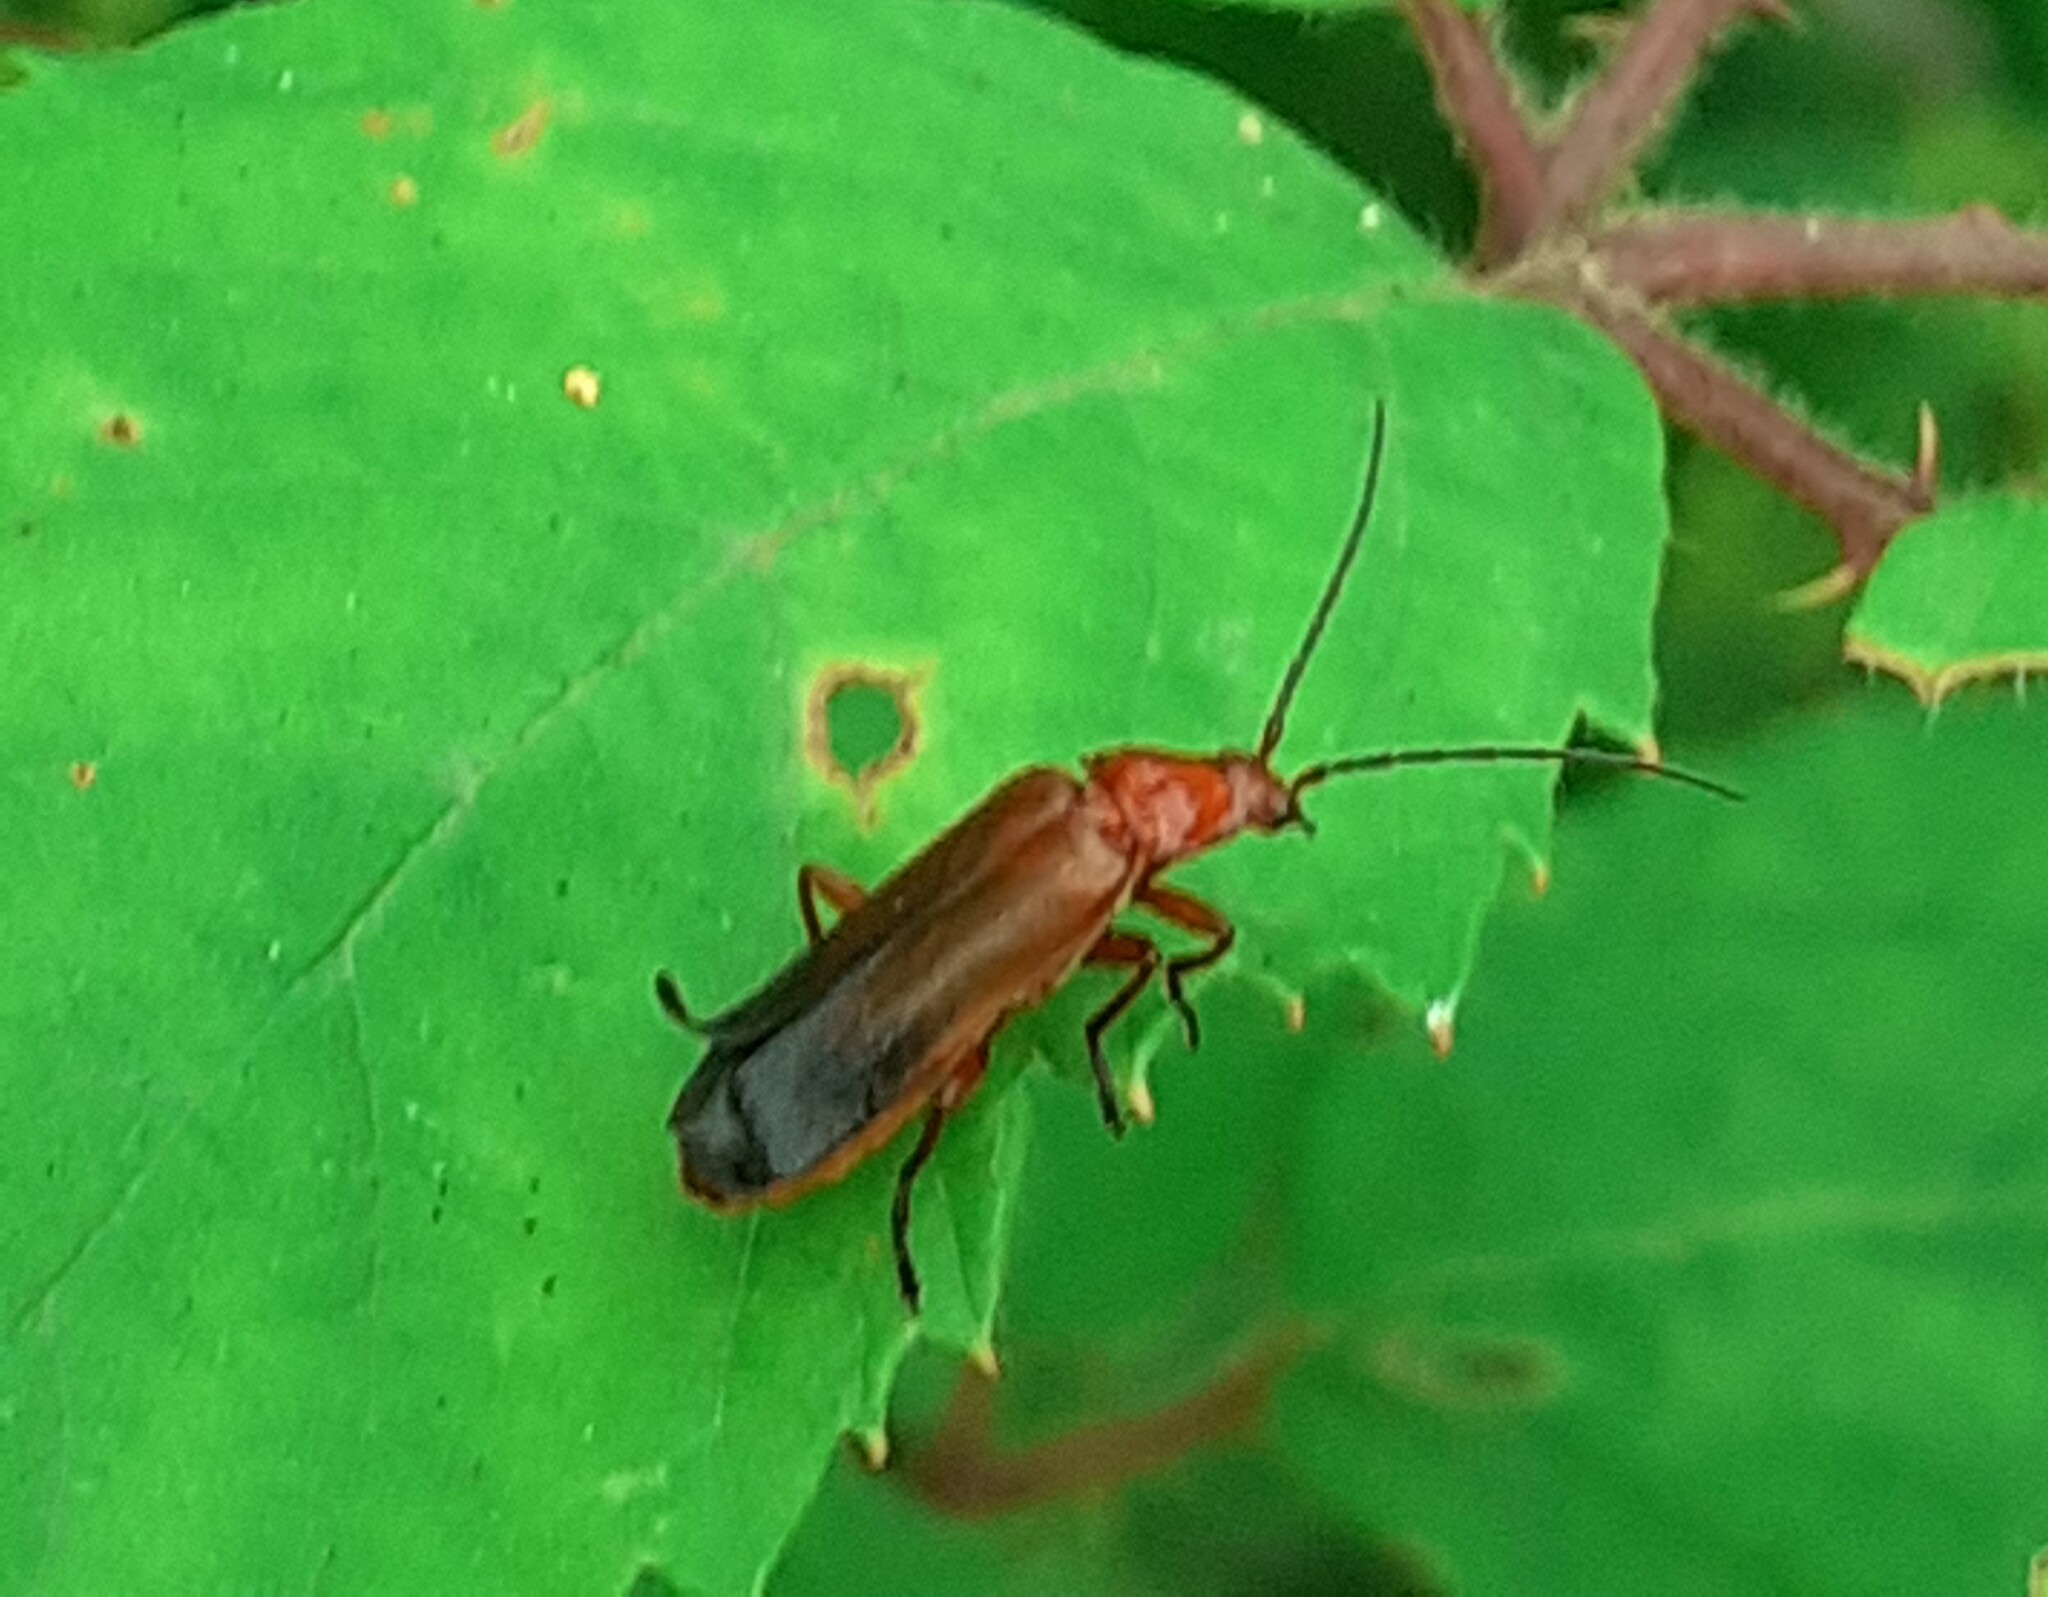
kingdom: Animalia
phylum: Arthropoda
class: Insecta
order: Coleoptera
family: Cantharidae
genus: Rhagonycha
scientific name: Rhagonycha fulva
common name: Common red soldier beetle
